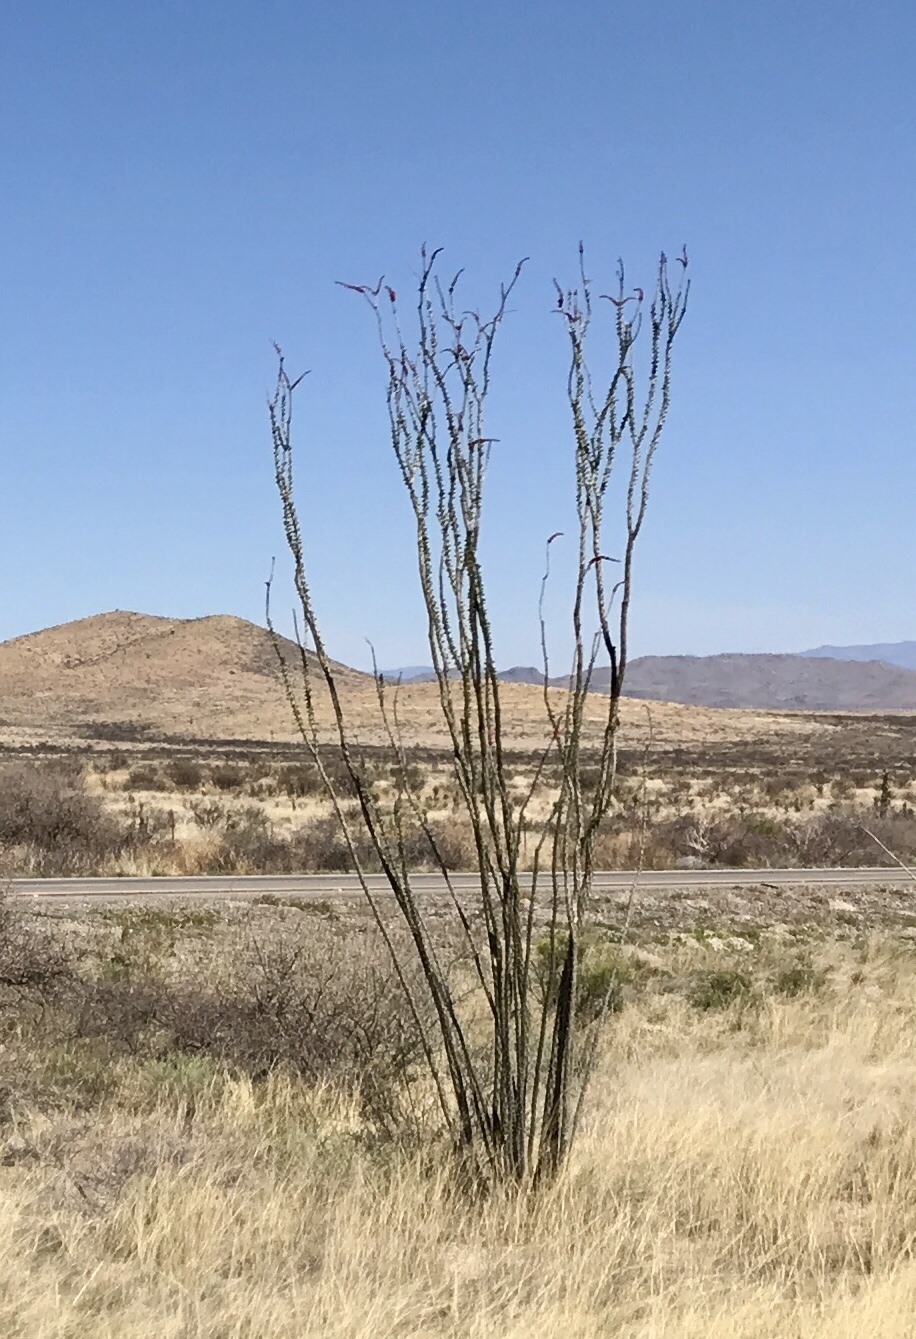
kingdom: Plantae
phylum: Tracheophyta
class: Magnoliopsida
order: Ericales
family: Fouquieriaceae
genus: Fouquieria
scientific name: Fouquieria splendens
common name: Vine-cactus
